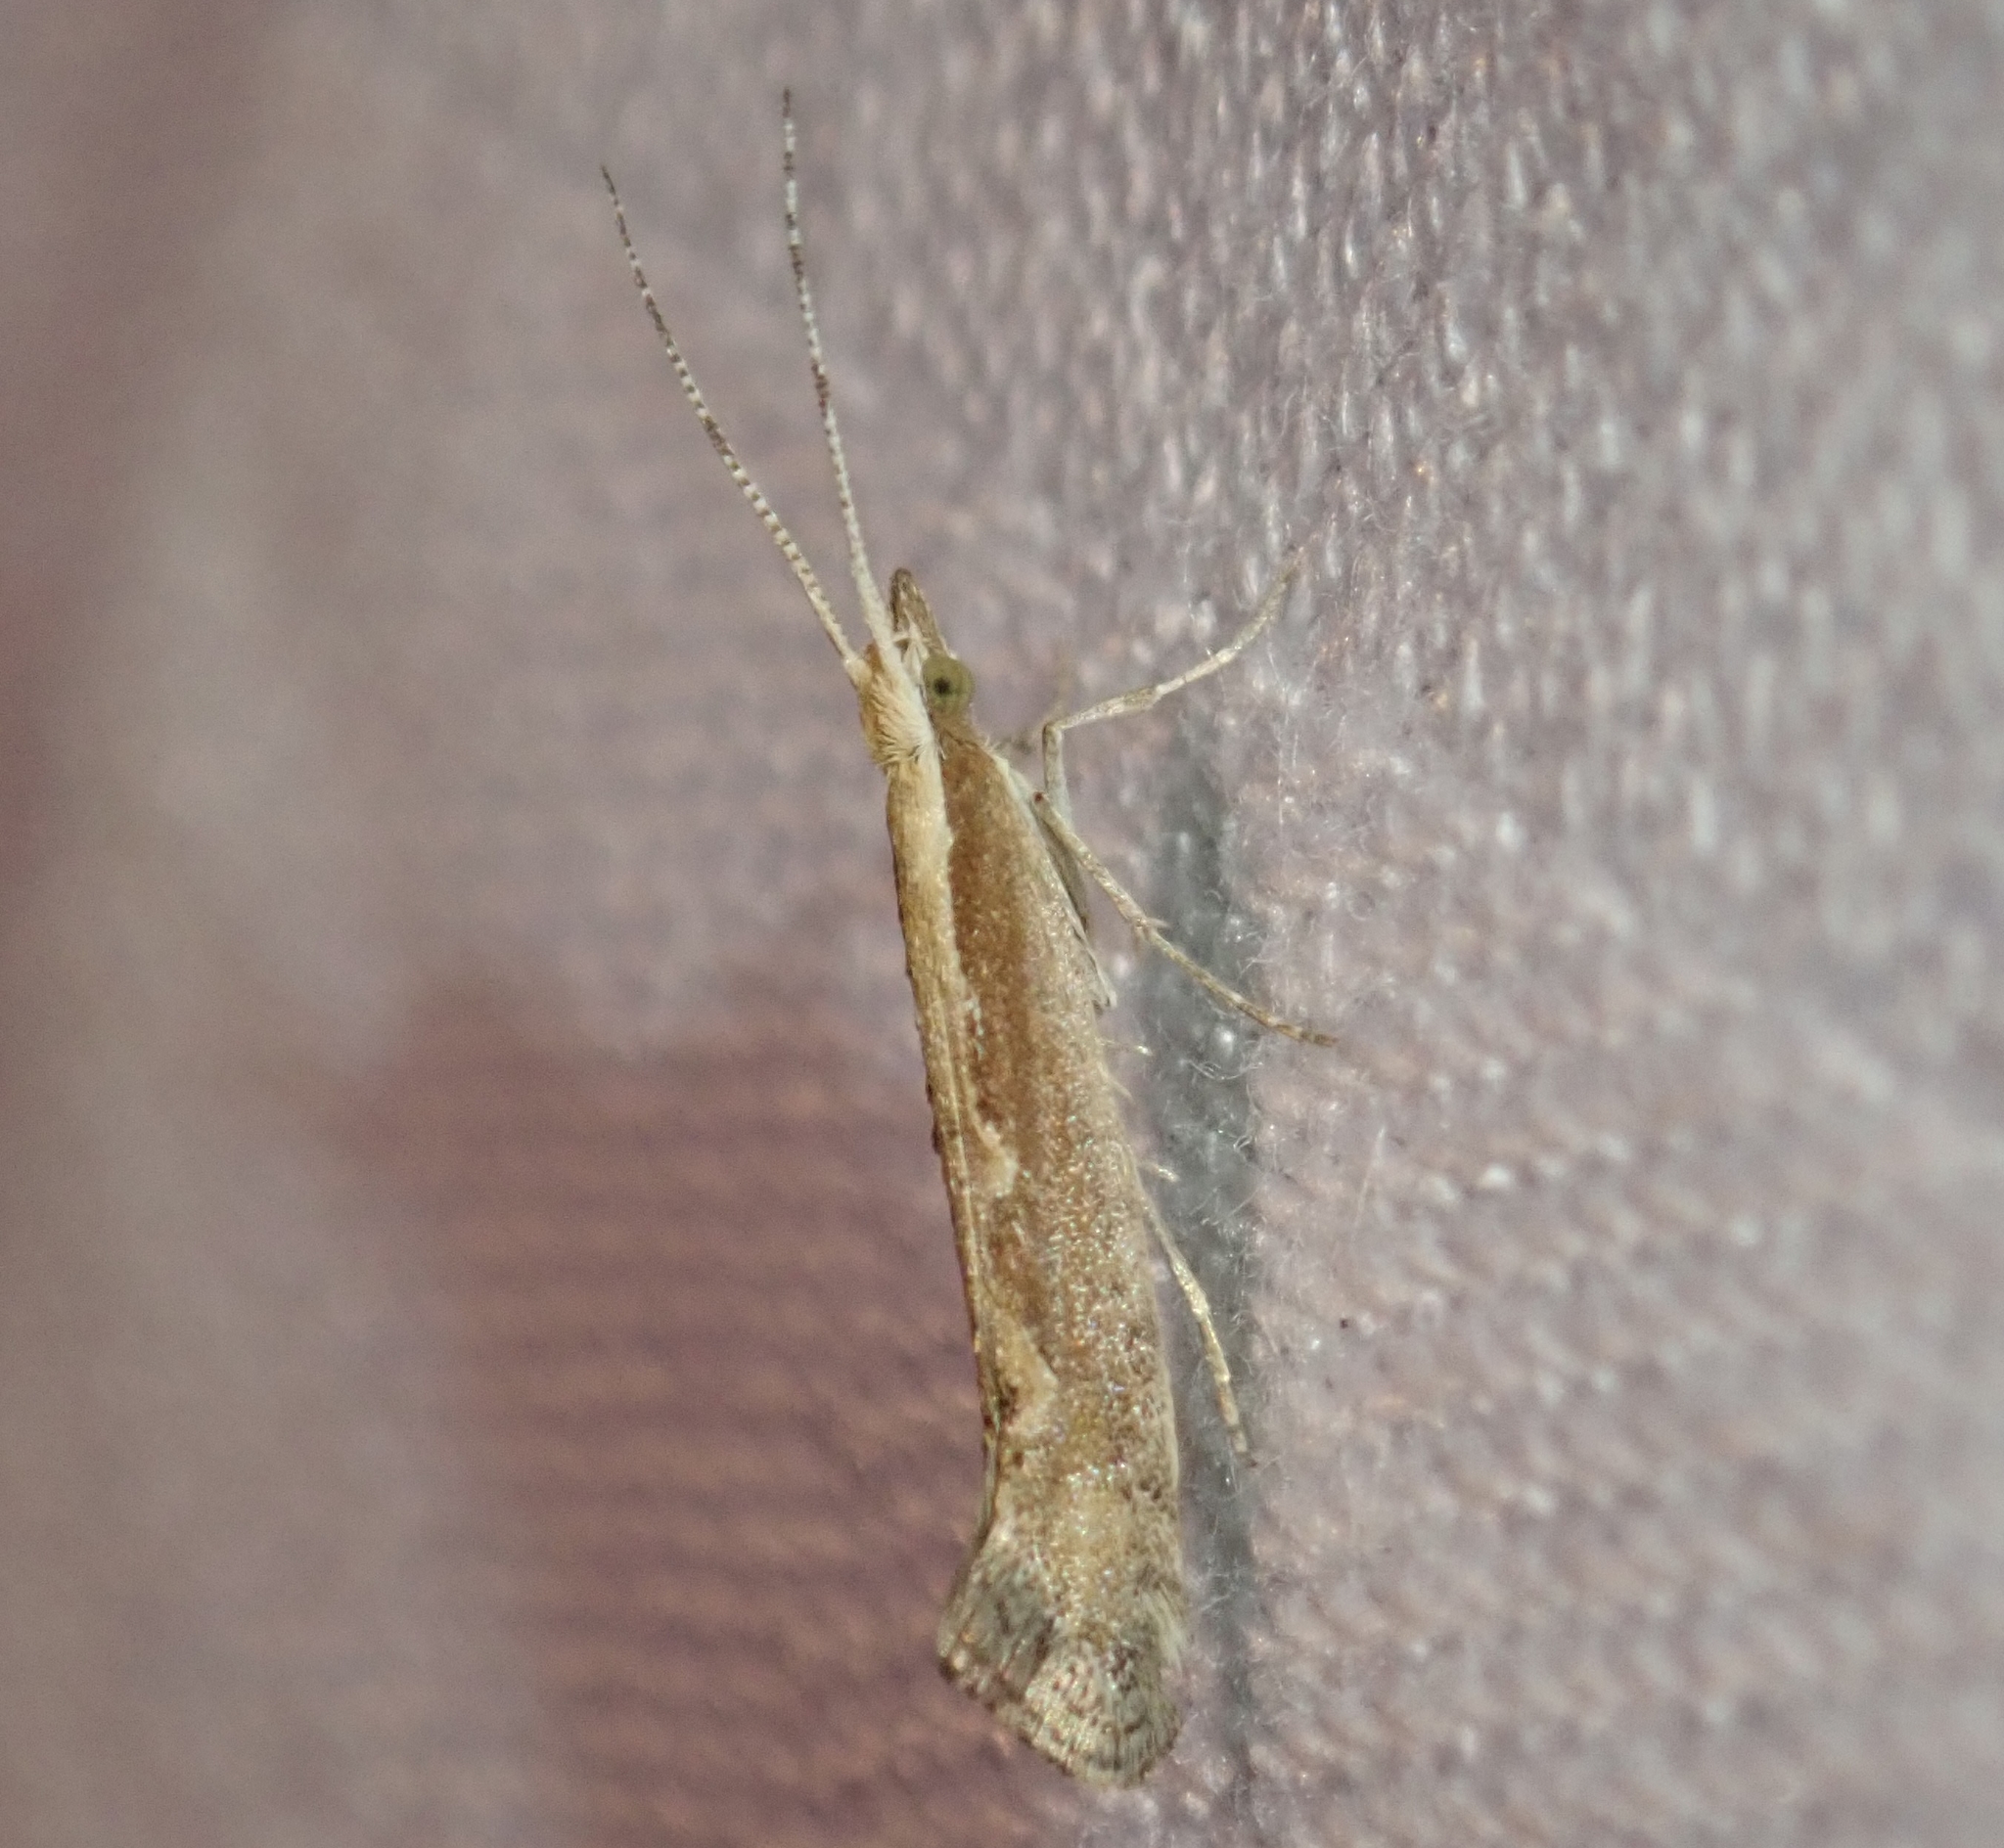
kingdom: Animalia
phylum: Arthropoda
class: Insecta
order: Lepidoptera
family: Plutellidae
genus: Plutella
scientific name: Plutella xylostella
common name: Diamond-back moth
